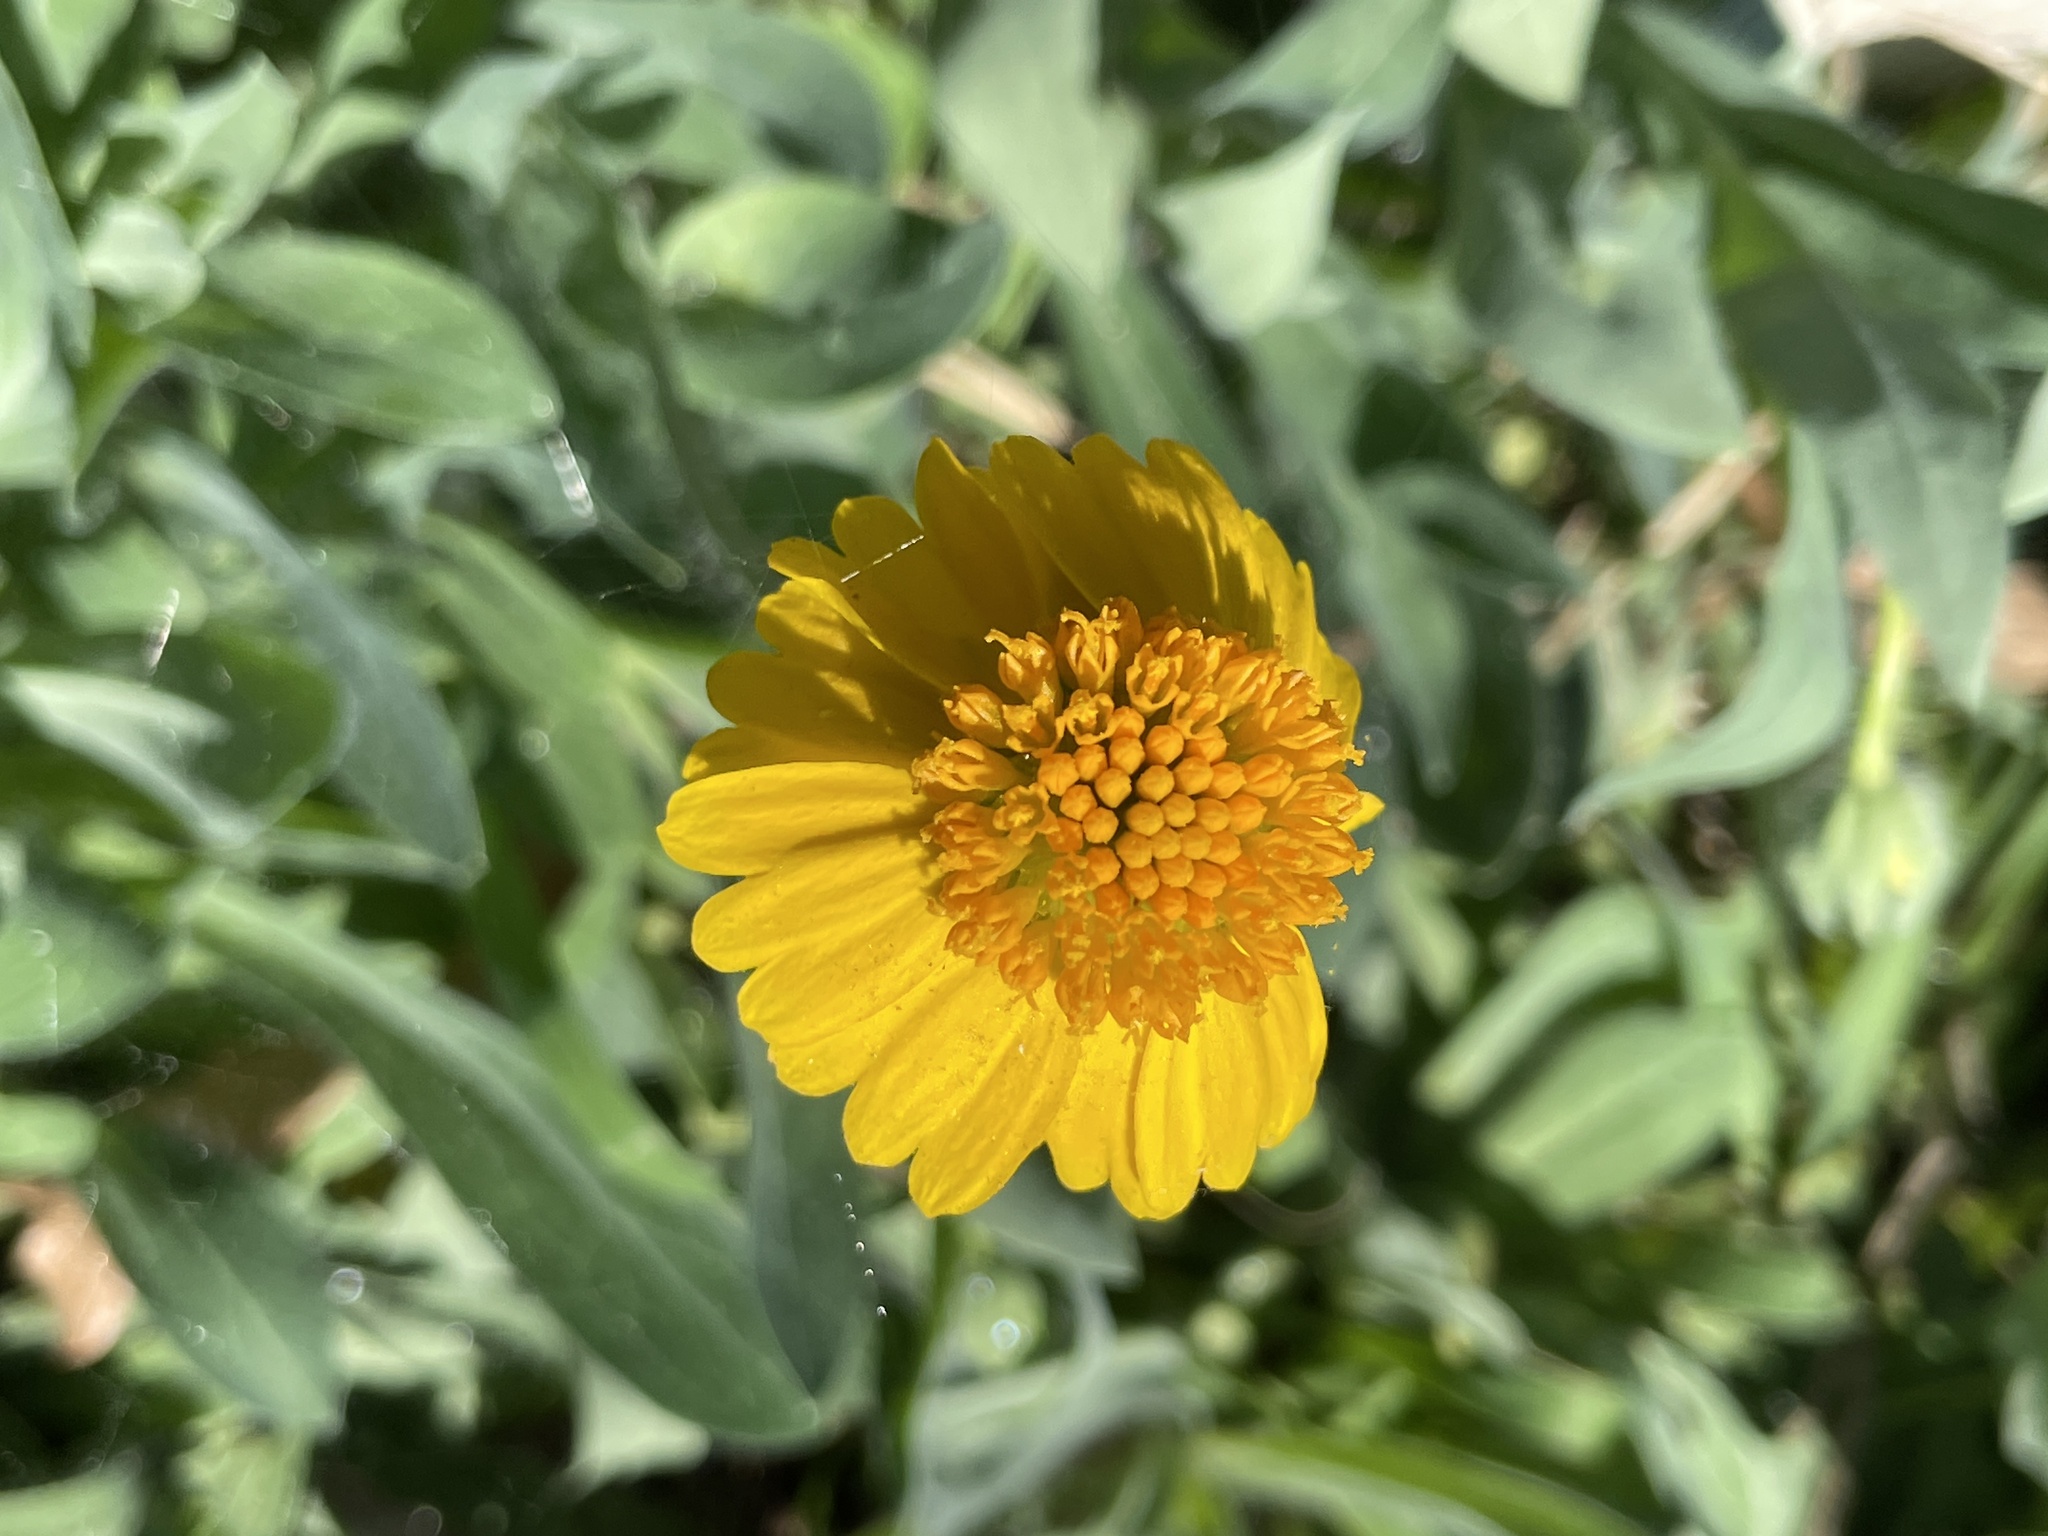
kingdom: Plantae
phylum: Tracheophyta
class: Magnoliopsida
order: Asterales
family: Asteraceae
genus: Amblyolepis
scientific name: Amblyolepis setigera
